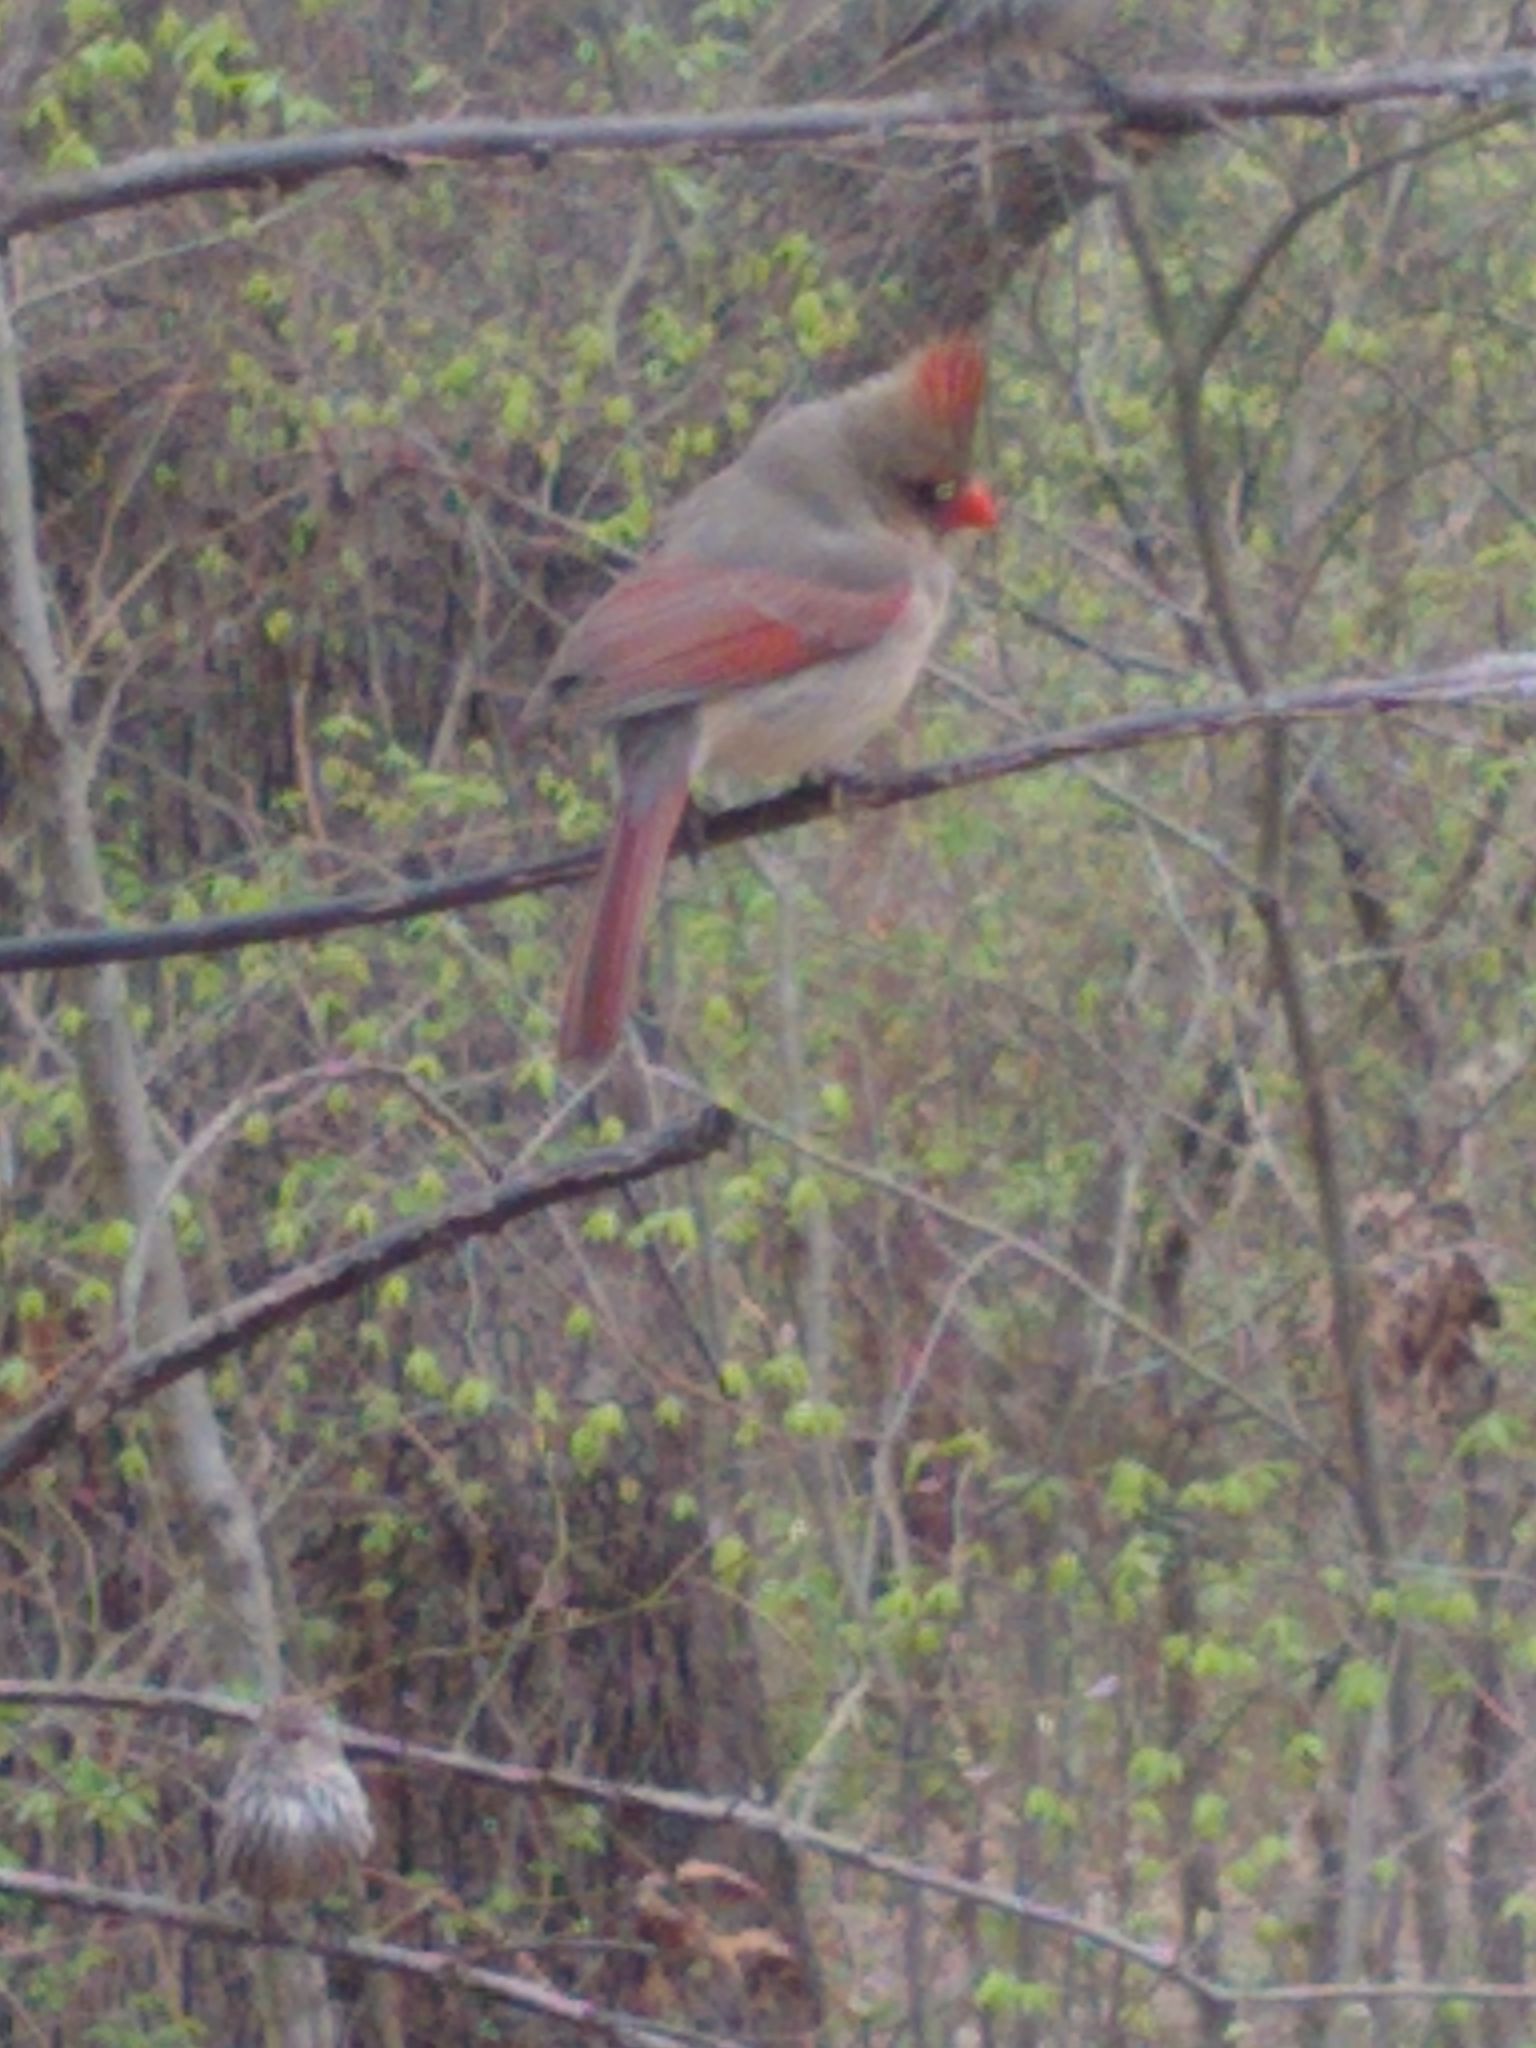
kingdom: Animalia
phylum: Chordata
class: Aves
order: Passeriformes
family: Cardinalidae
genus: Cardinalis
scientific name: Cardinalis cardinalis
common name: Northern cardinal
